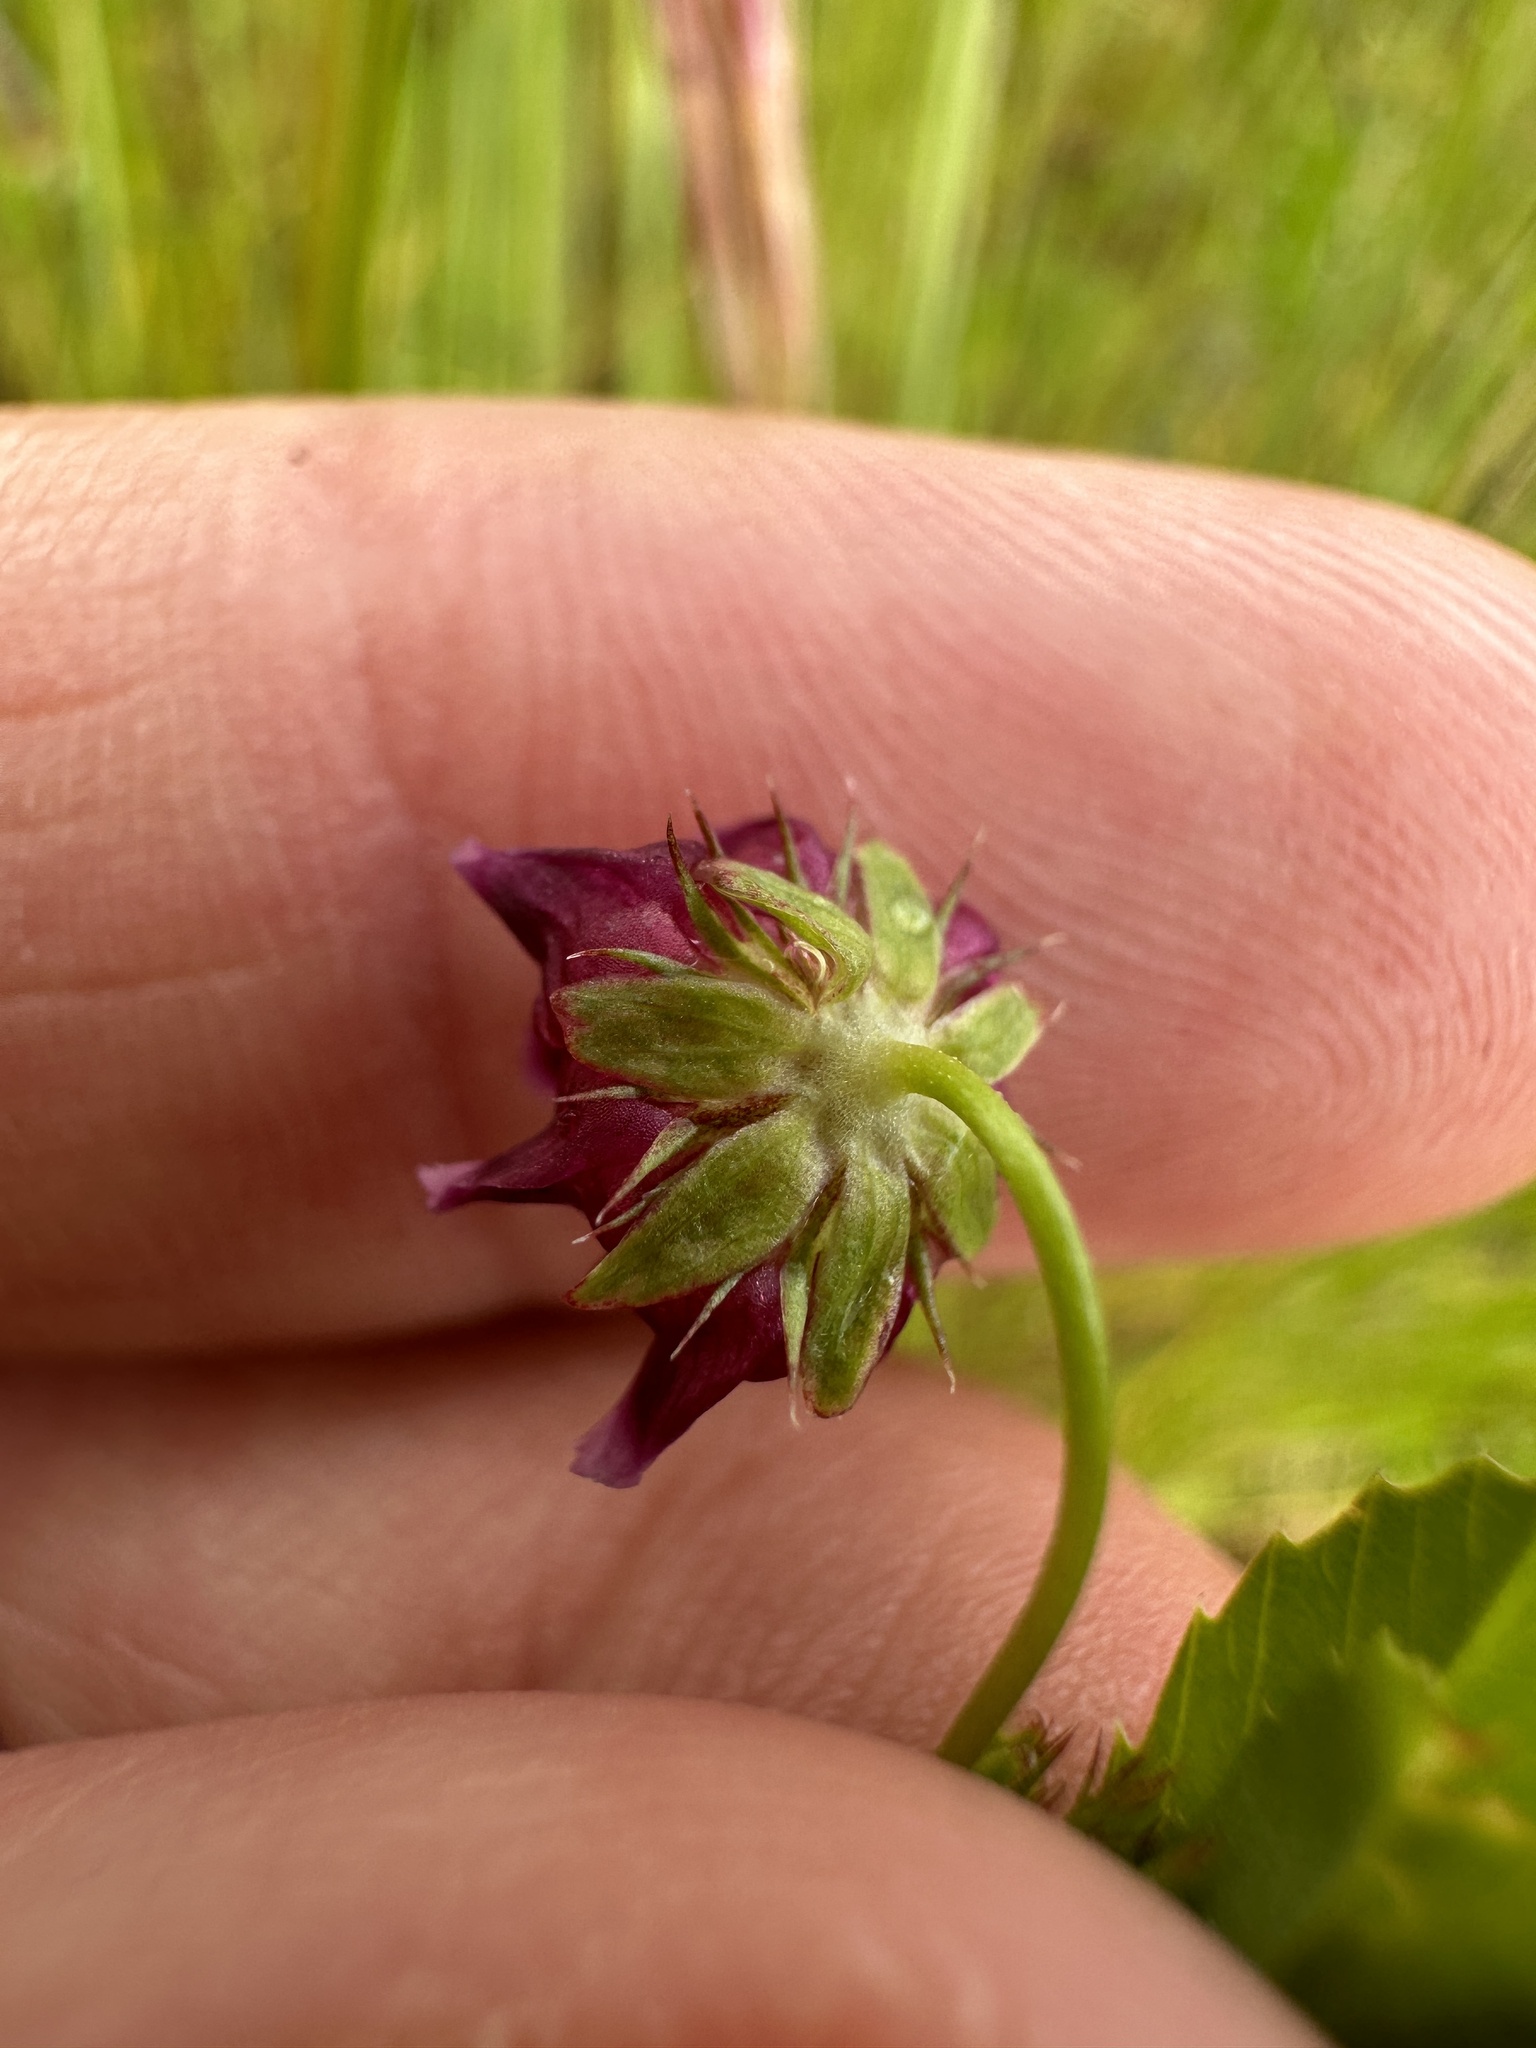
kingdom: Plantae
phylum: Tracheophyta
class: Magnoliopsida
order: Fabales
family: Fabaceae
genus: Trifolium
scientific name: Trifolium depauperatum
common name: Poverty clover
